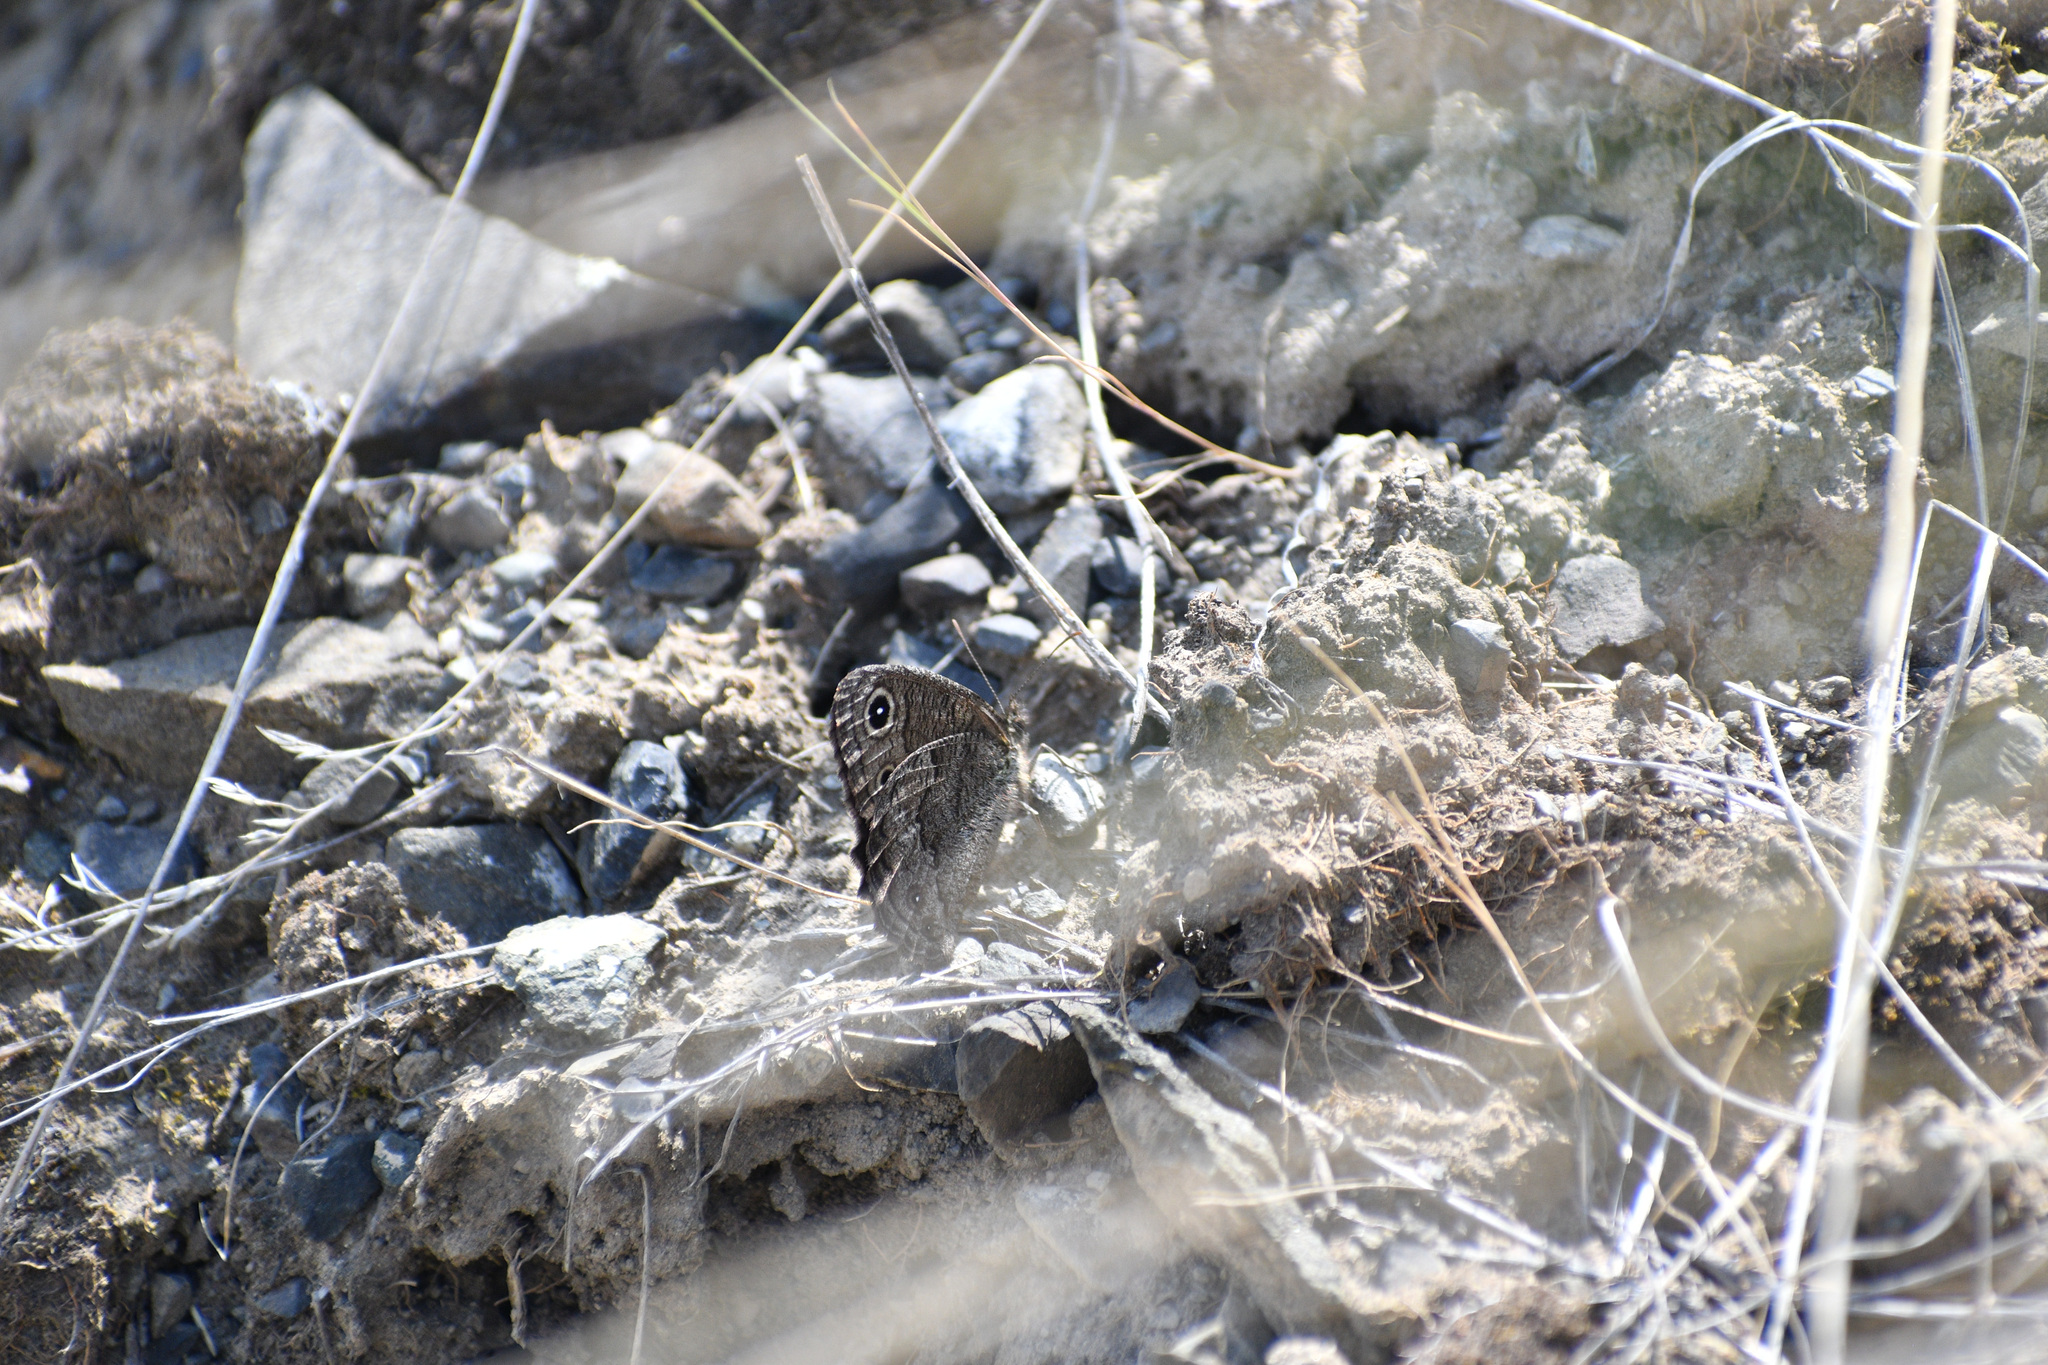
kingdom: Animalia
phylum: Arthropoda
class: Insecta
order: Lepidoptera
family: Nymphalidae
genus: Cercyonis
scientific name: Cercyonis sthenele
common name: Great basin wood-nymph
